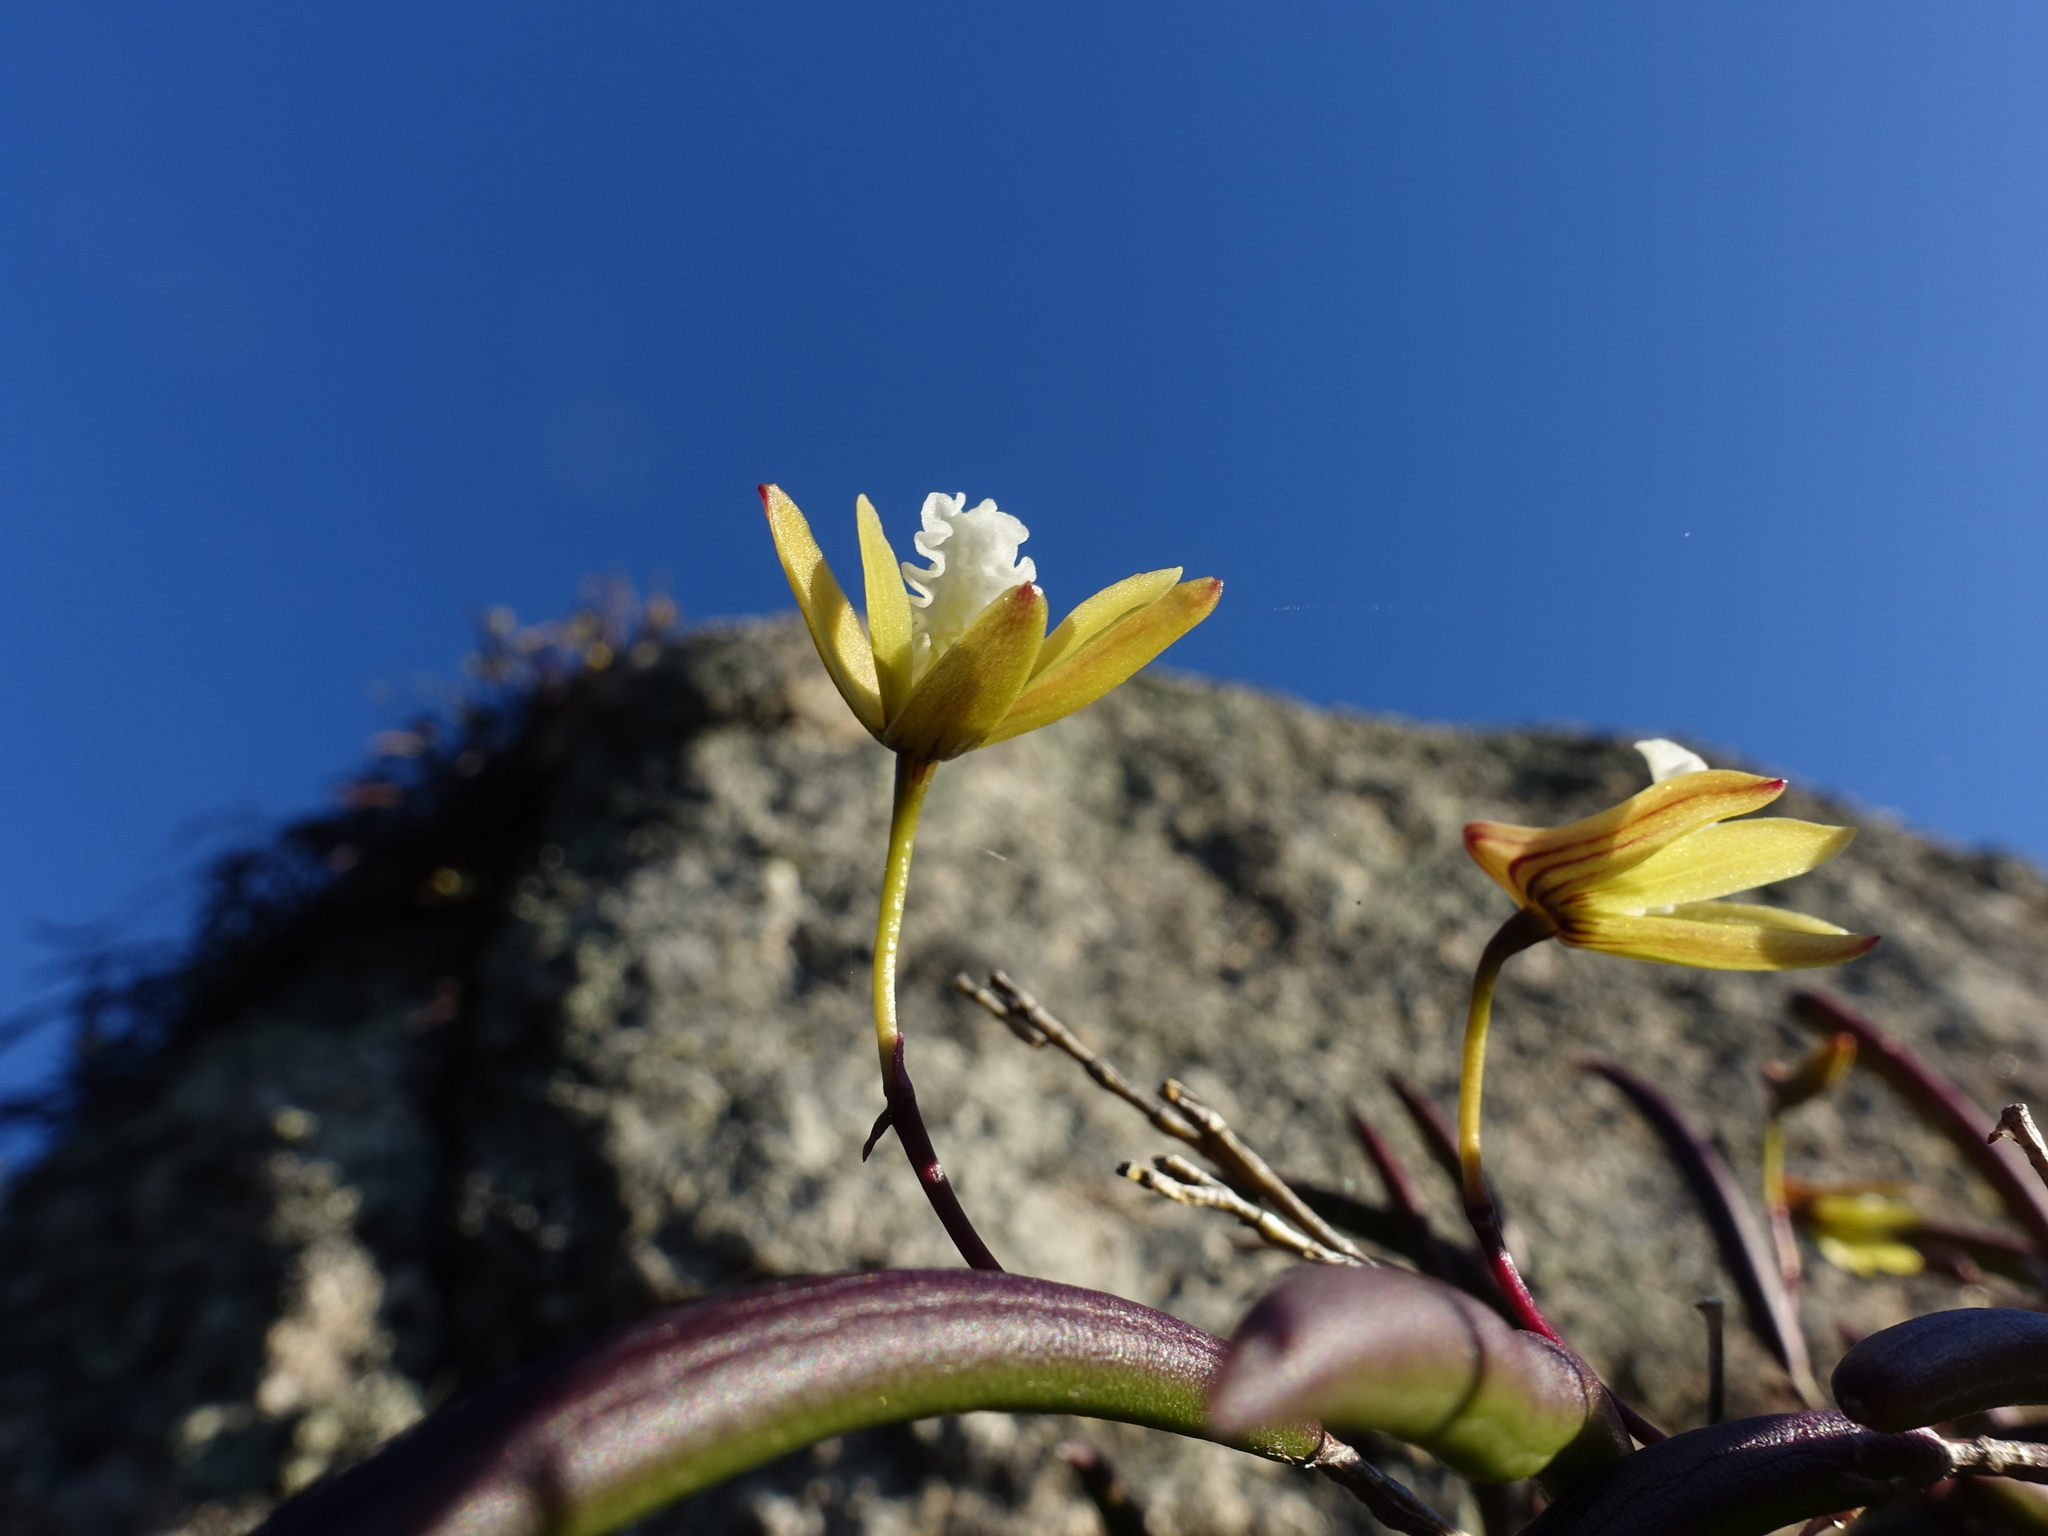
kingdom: Plantae
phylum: Tracheophyta
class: Liliopsida
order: Asparagales
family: Orchidaceae
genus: Dendrobium
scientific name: Dendrobium striolatum
